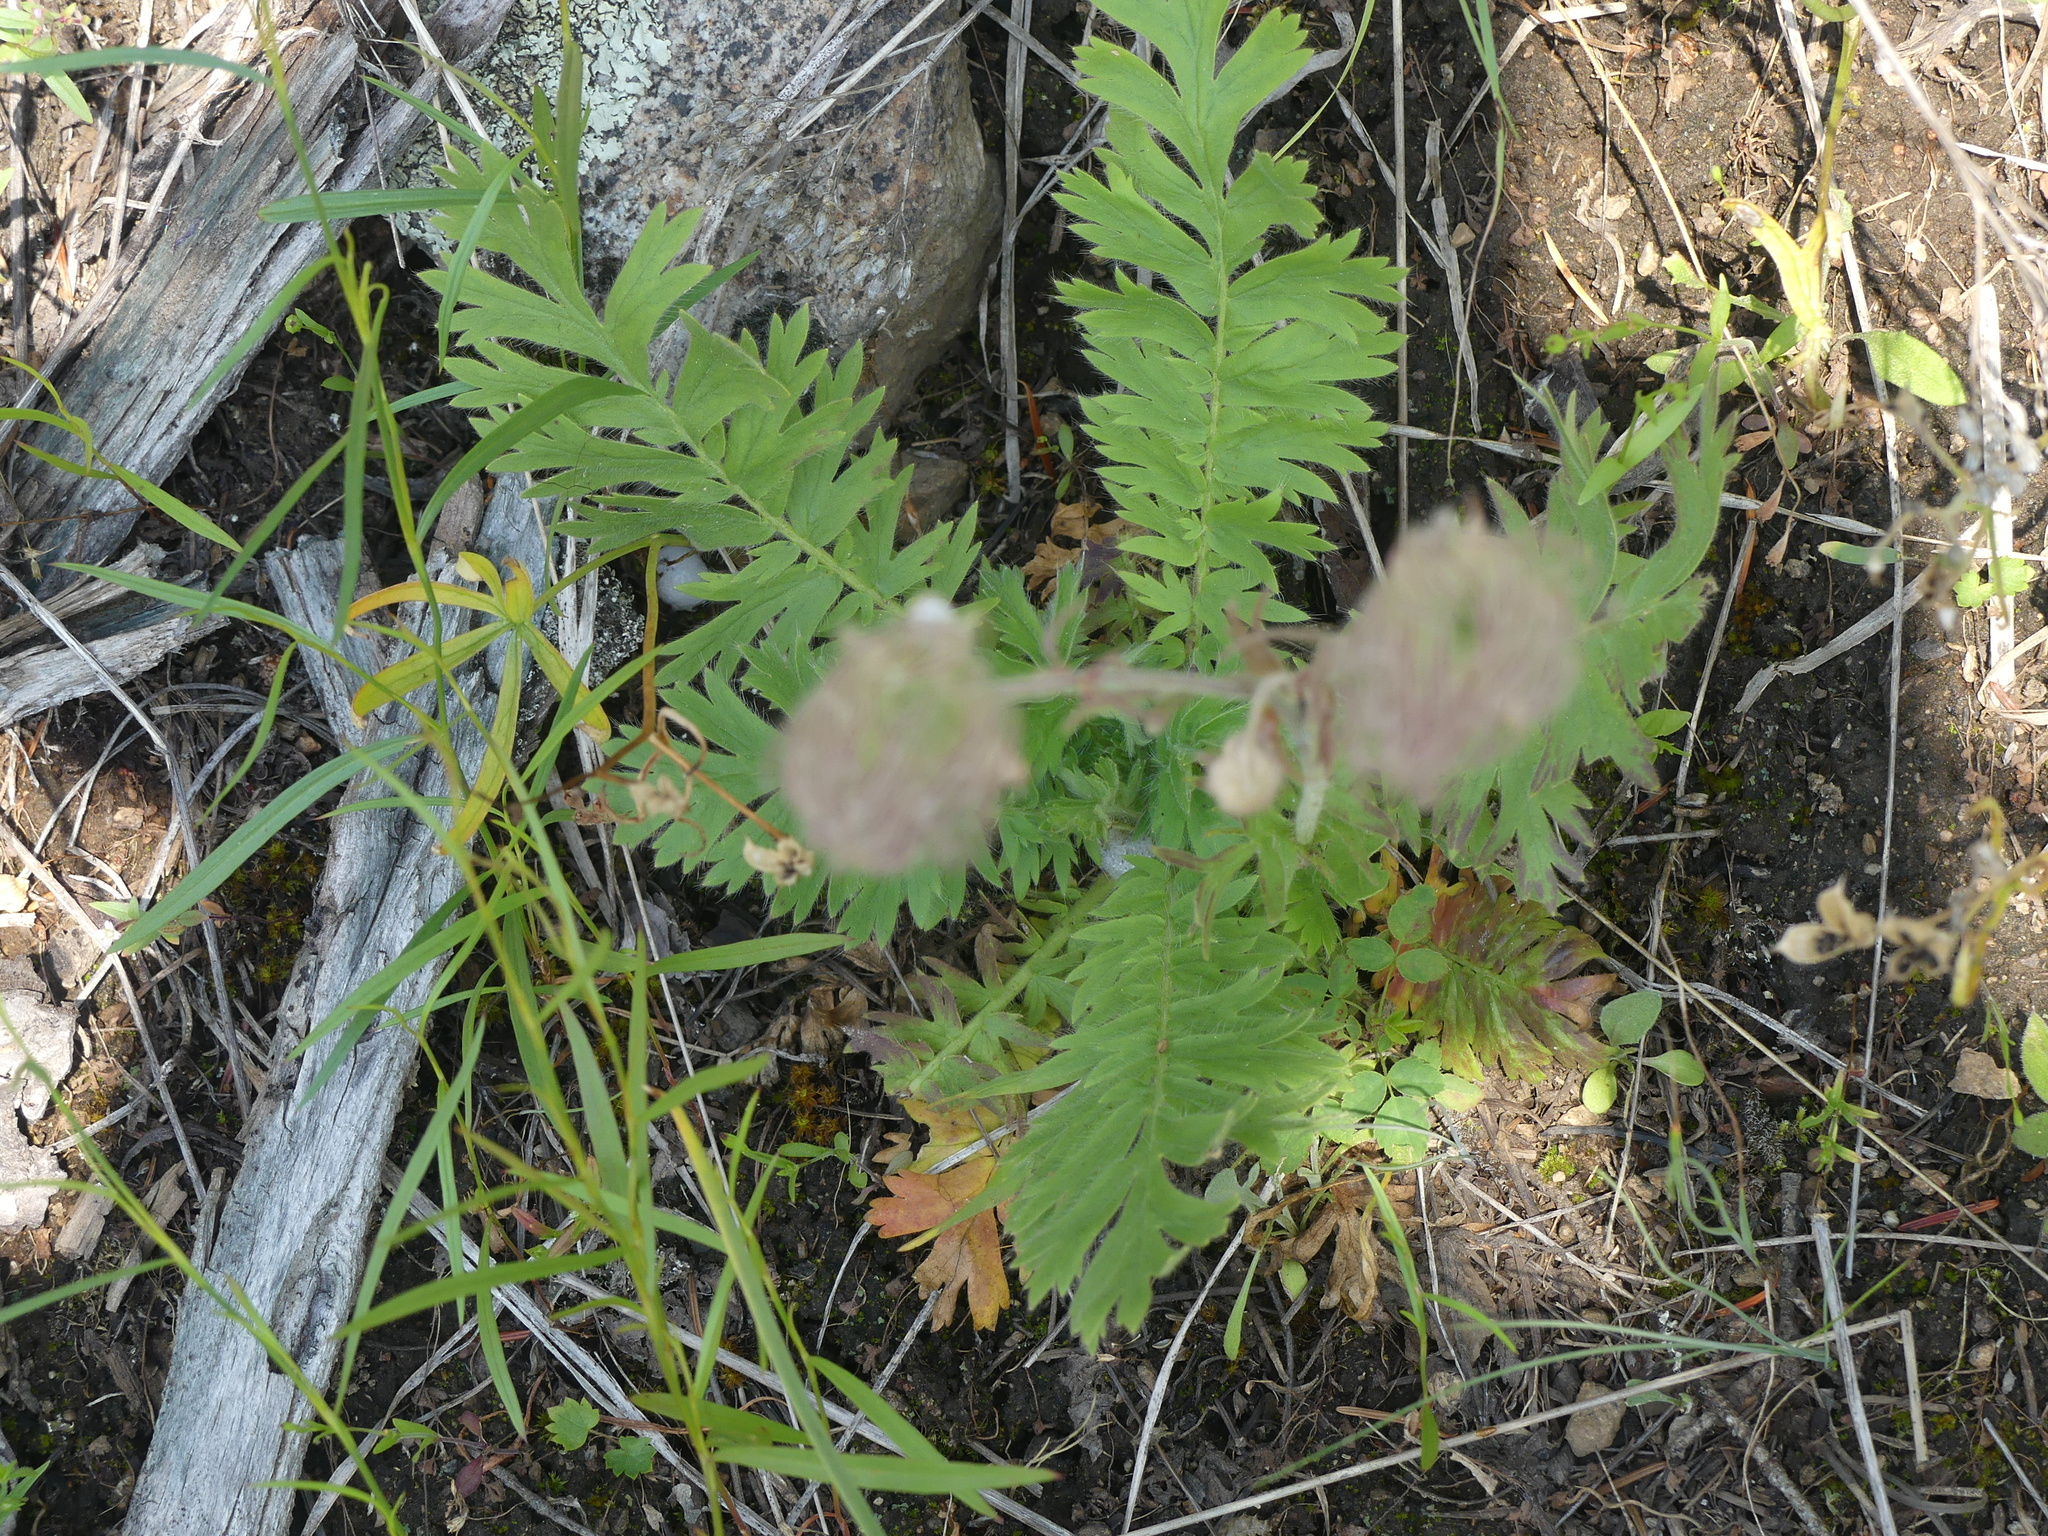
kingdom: Plantae
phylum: Tracheophyta
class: Magnoliopsida
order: Rosales
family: Rosaceae
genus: Geum
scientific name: Geum triflorum
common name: Old man's whiskers
